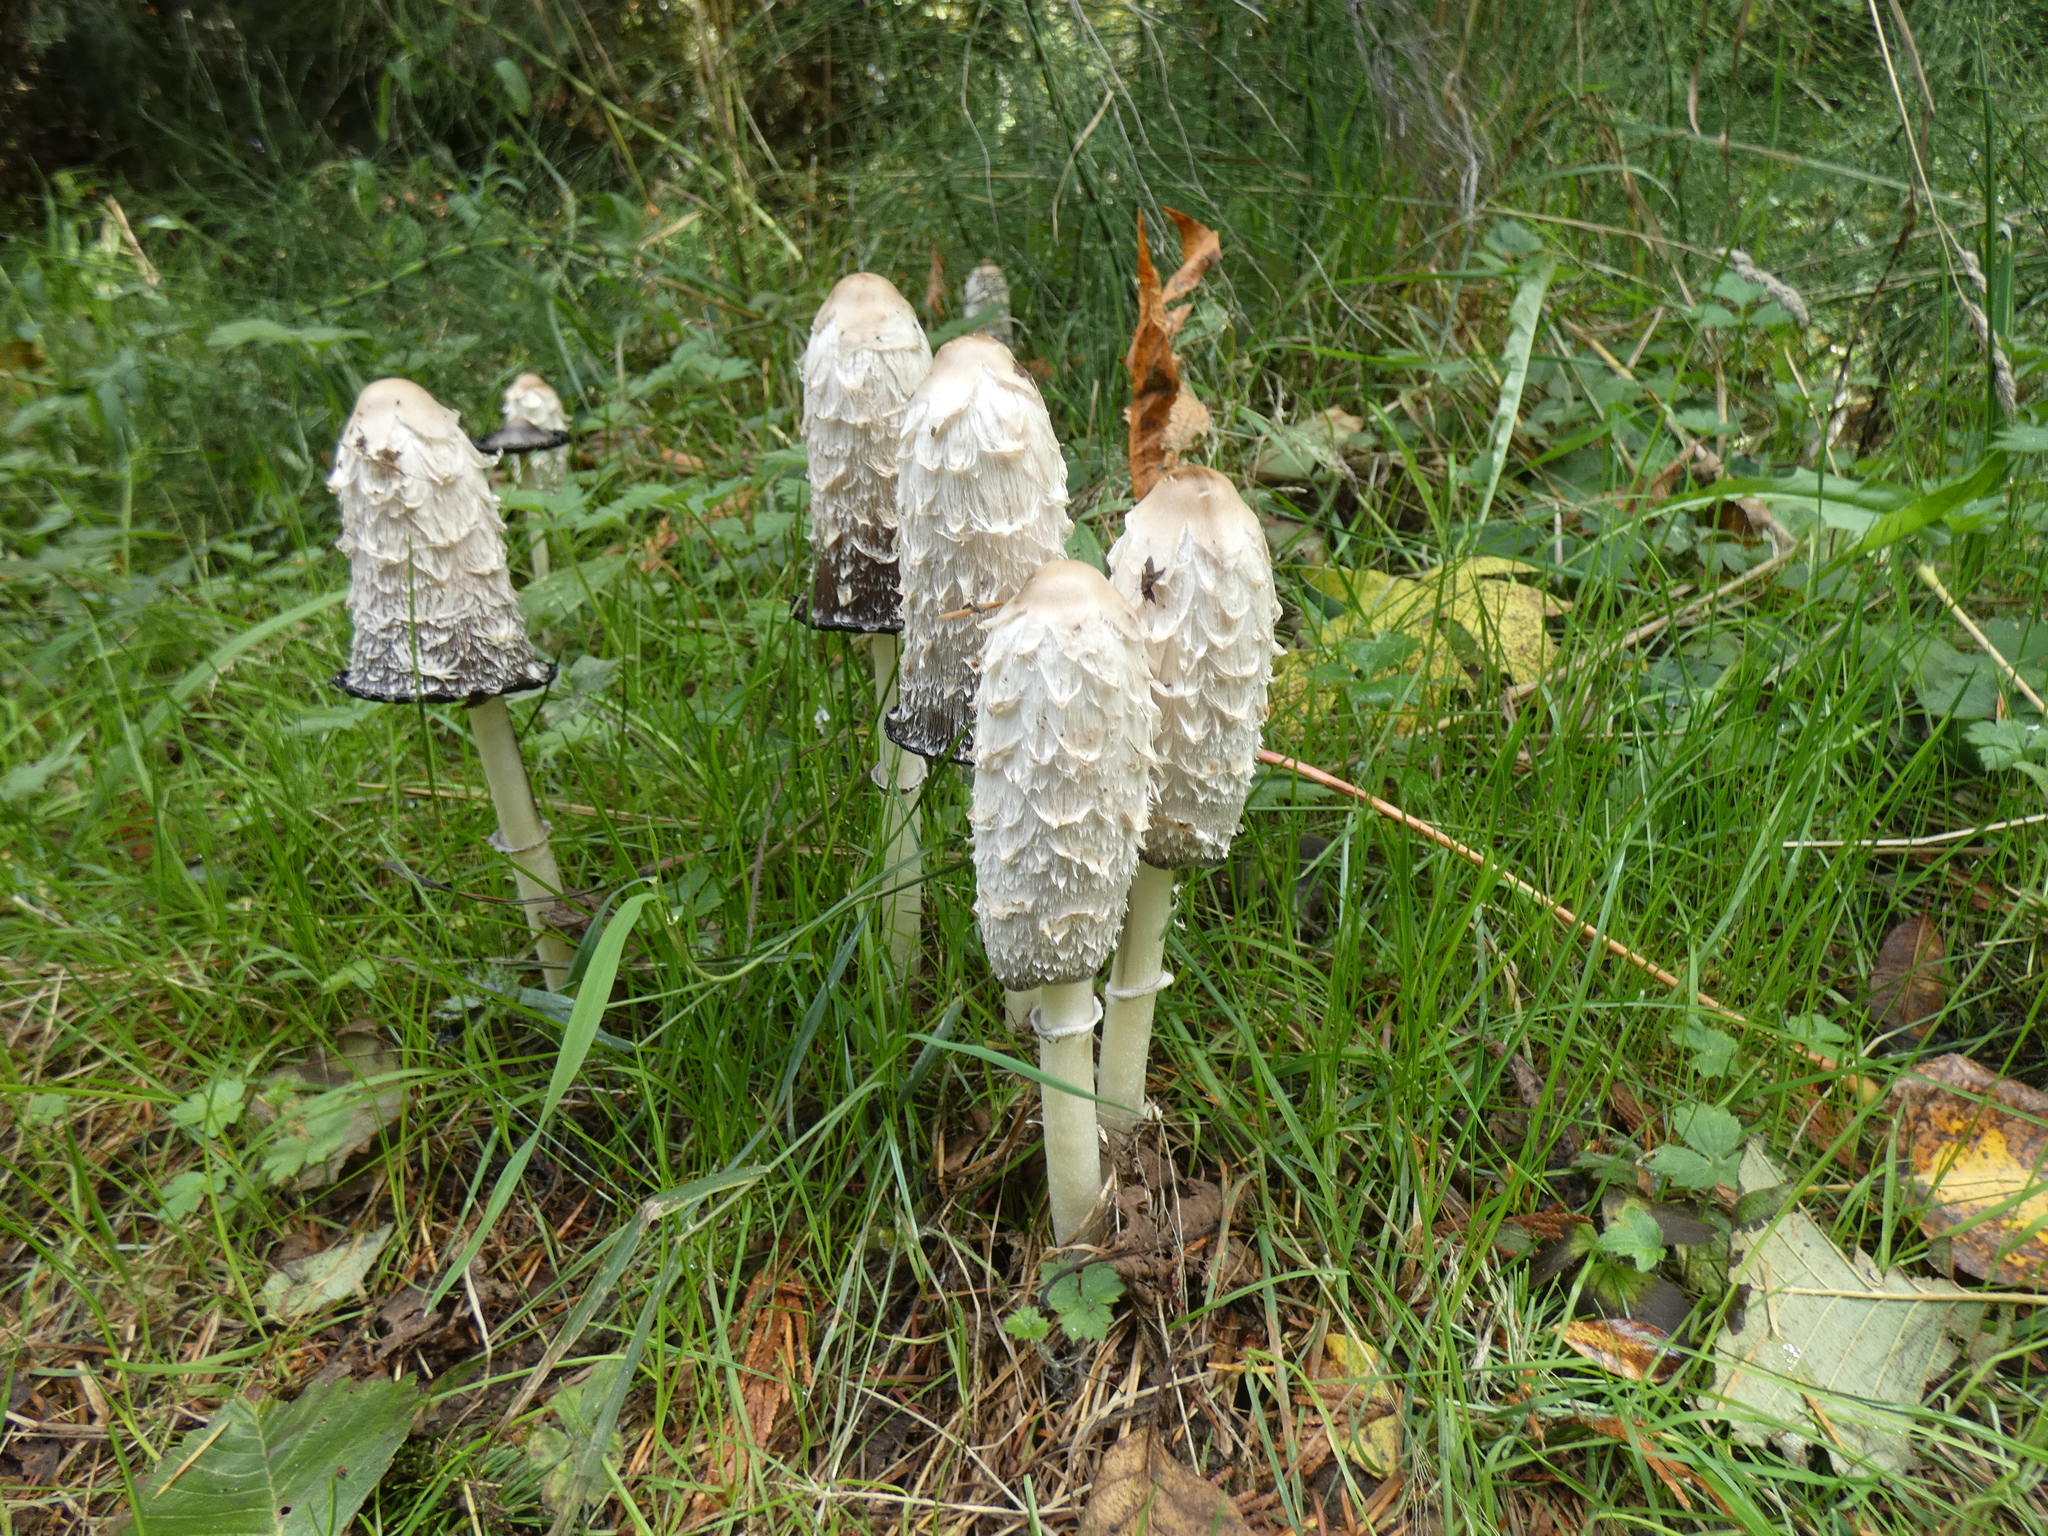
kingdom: Fungi
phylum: Basidiomycota
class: Agaricomycetes
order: Agaricales
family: Agaricaceae
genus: Coprinus
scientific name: Coprinus comatus
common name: Lawyer's wig
